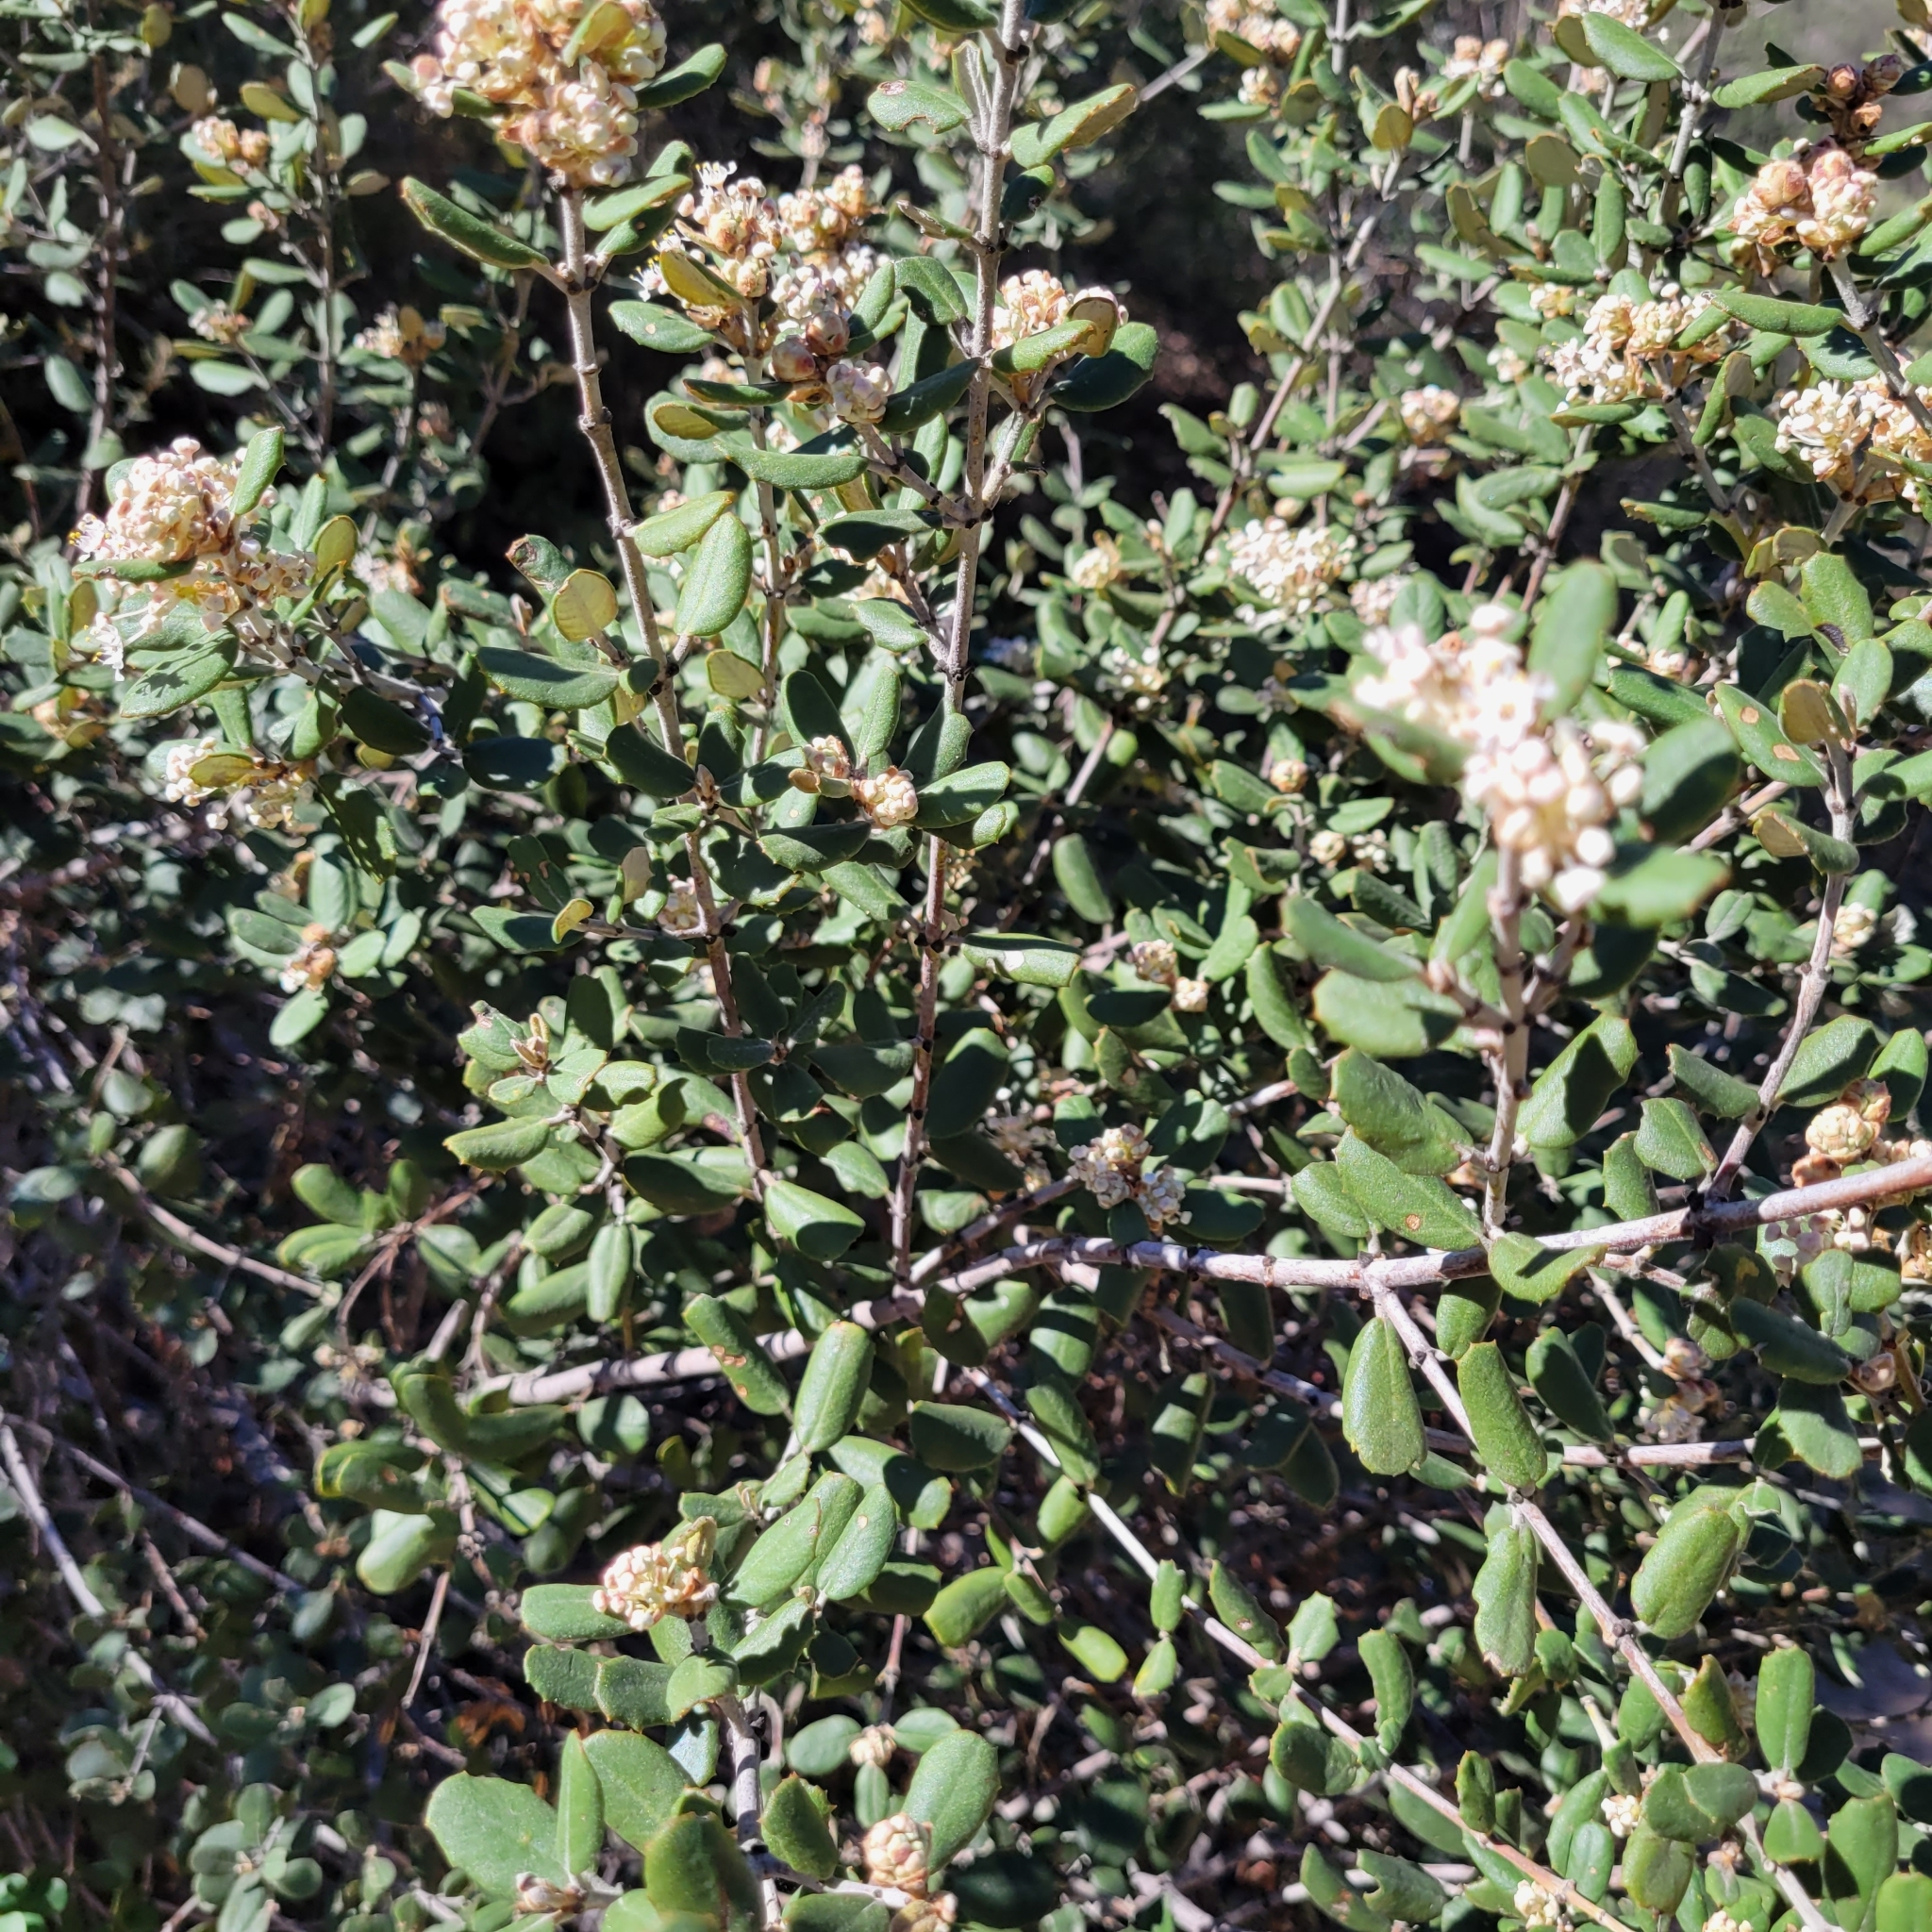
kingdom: Plantae
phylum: Tracheophyta
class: Magnoliopsida
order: Rosales
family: Rhamnaceae
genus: Ceanothus
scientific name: Ceanothus crassifolius
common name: Hoaryleaf ceanothus
